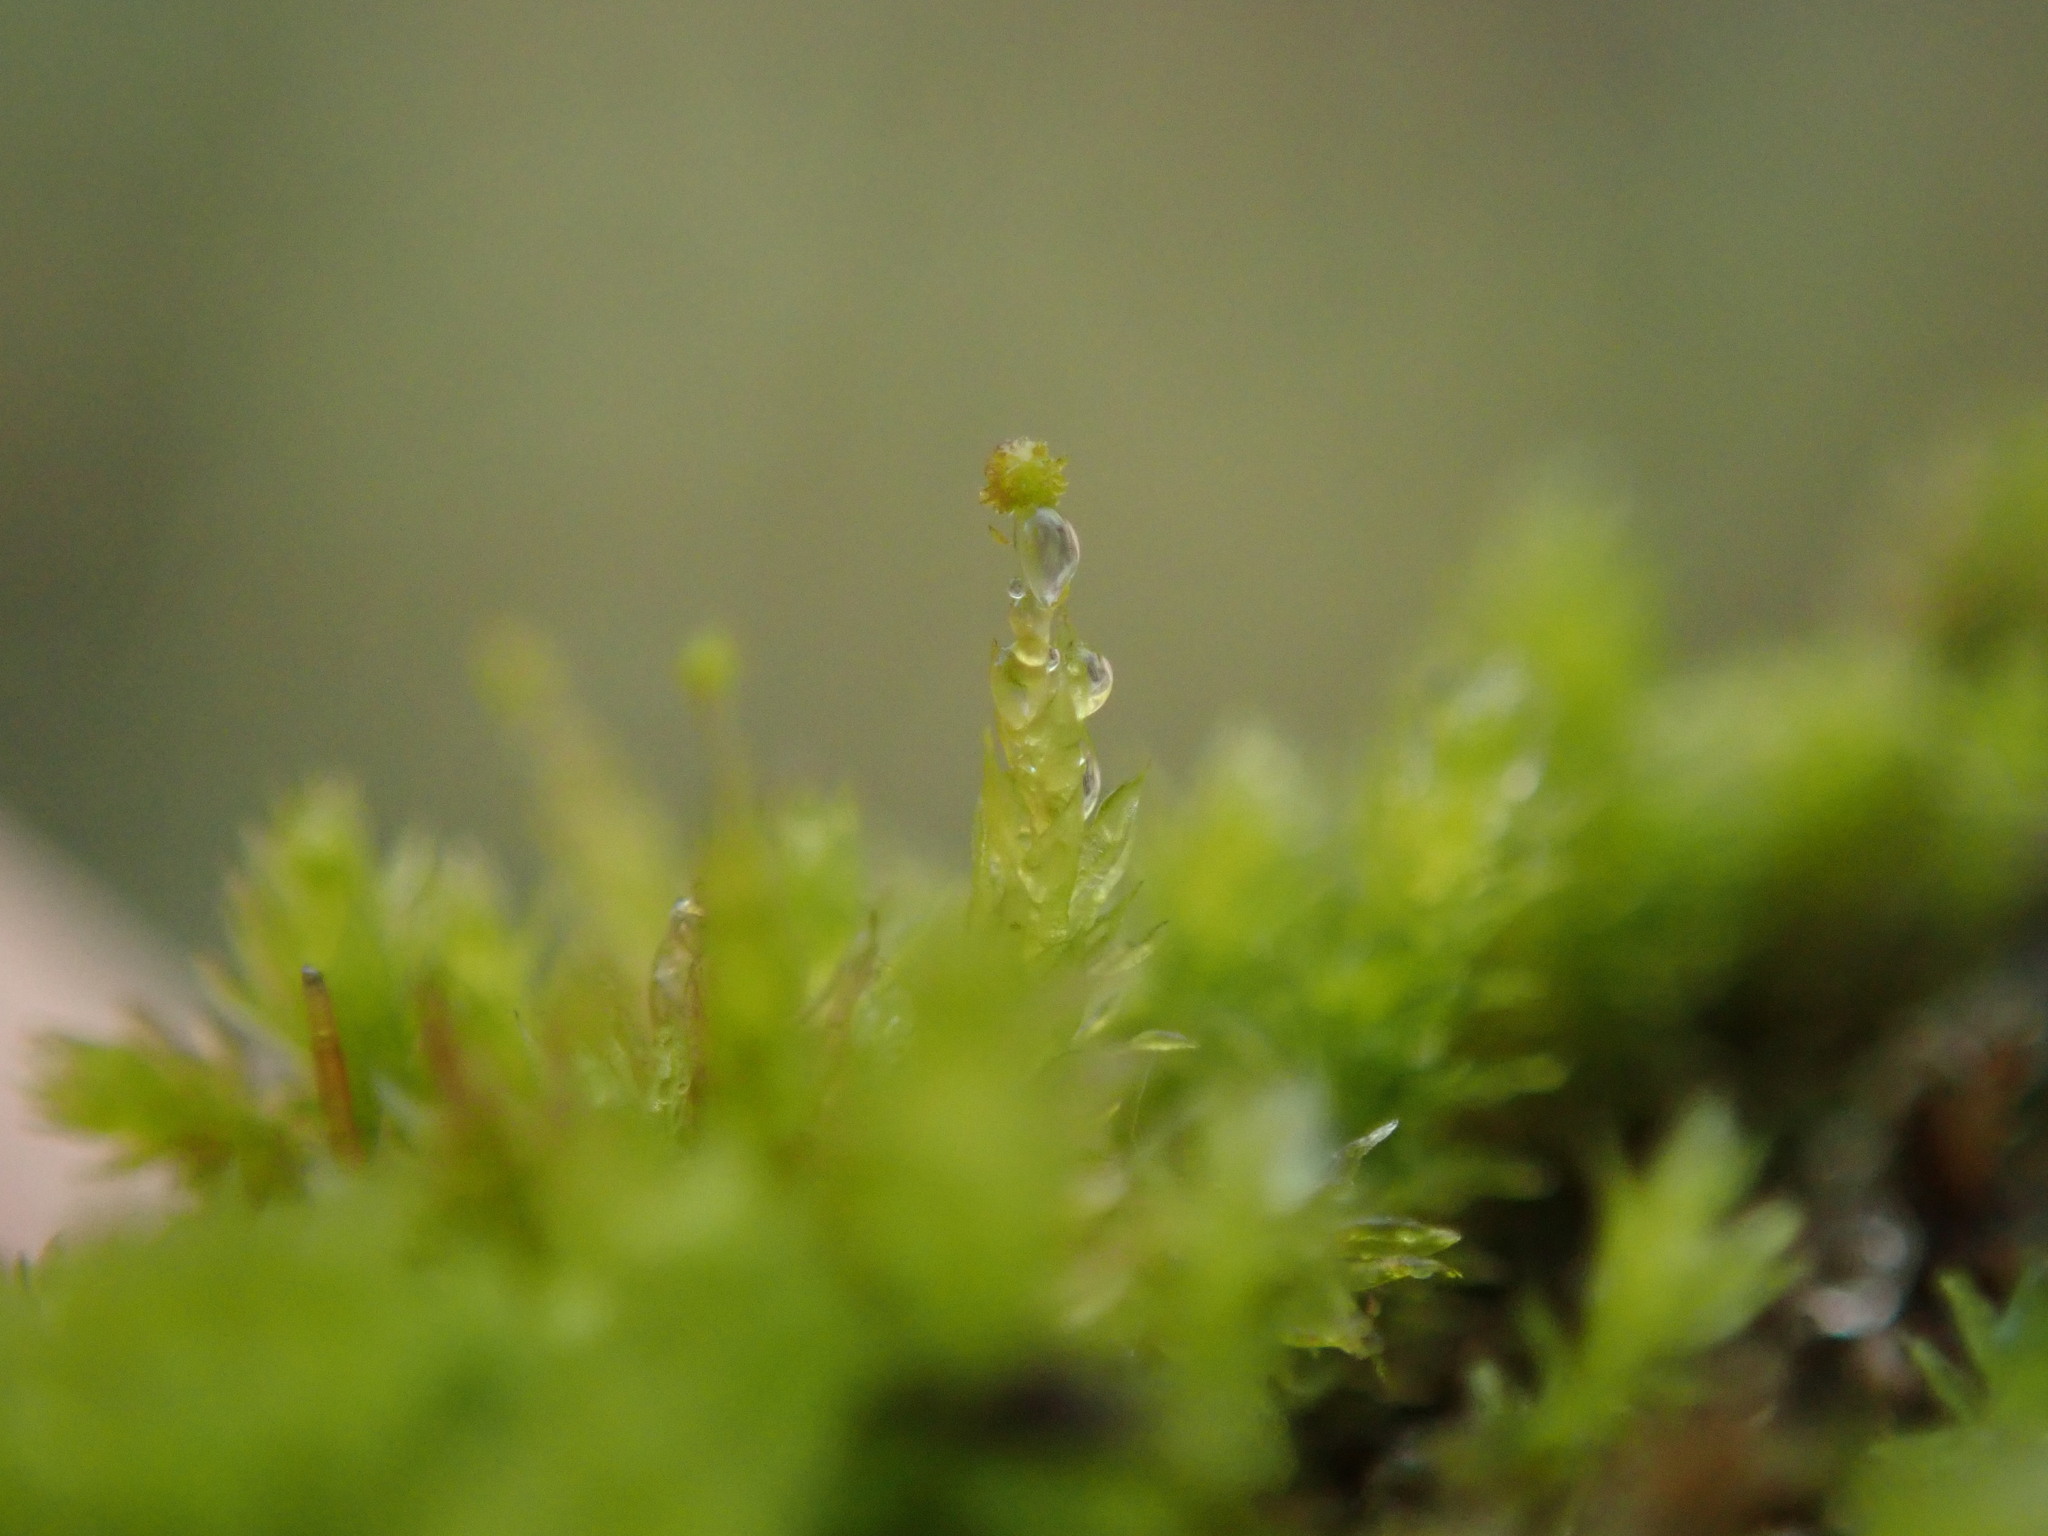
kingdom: Plantae
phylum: Bryophyta
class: Bryopsida
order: Aulacomniales
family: Aulacomniaceae
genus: Aulacomnium
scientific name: Aulacomnium androgynum
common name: Little groove moss
